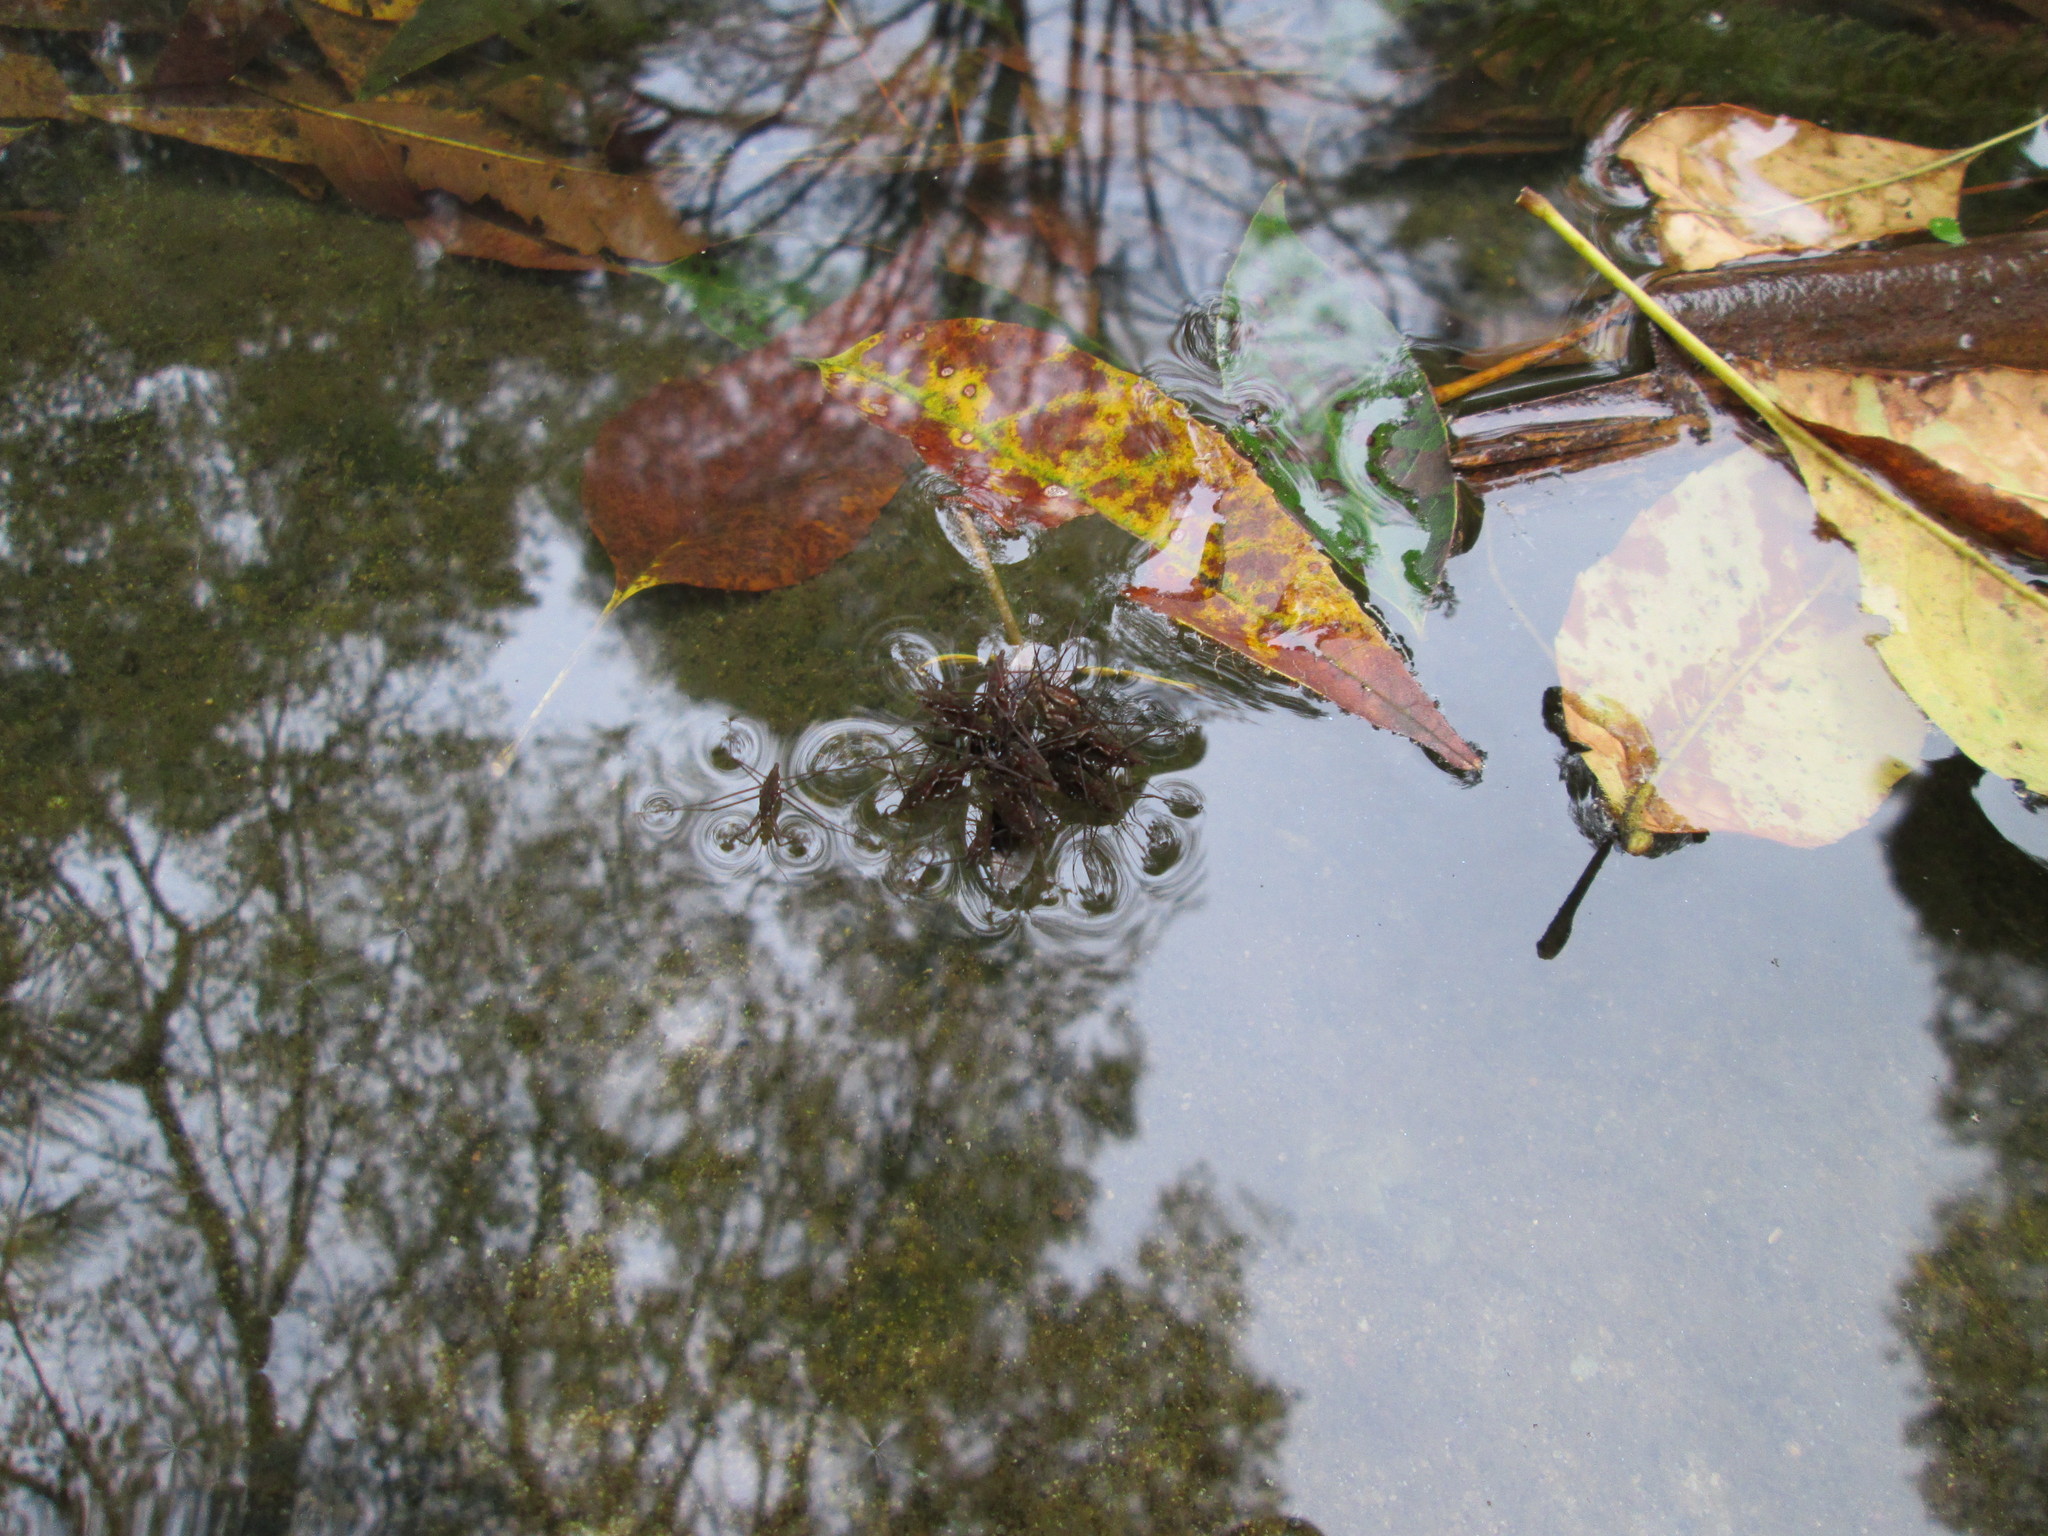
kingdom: Animalia
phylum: Arthropoda
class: Insecta
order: Hemiptera
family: Gerridae
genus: Eurygerris
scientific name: Eurygerris
